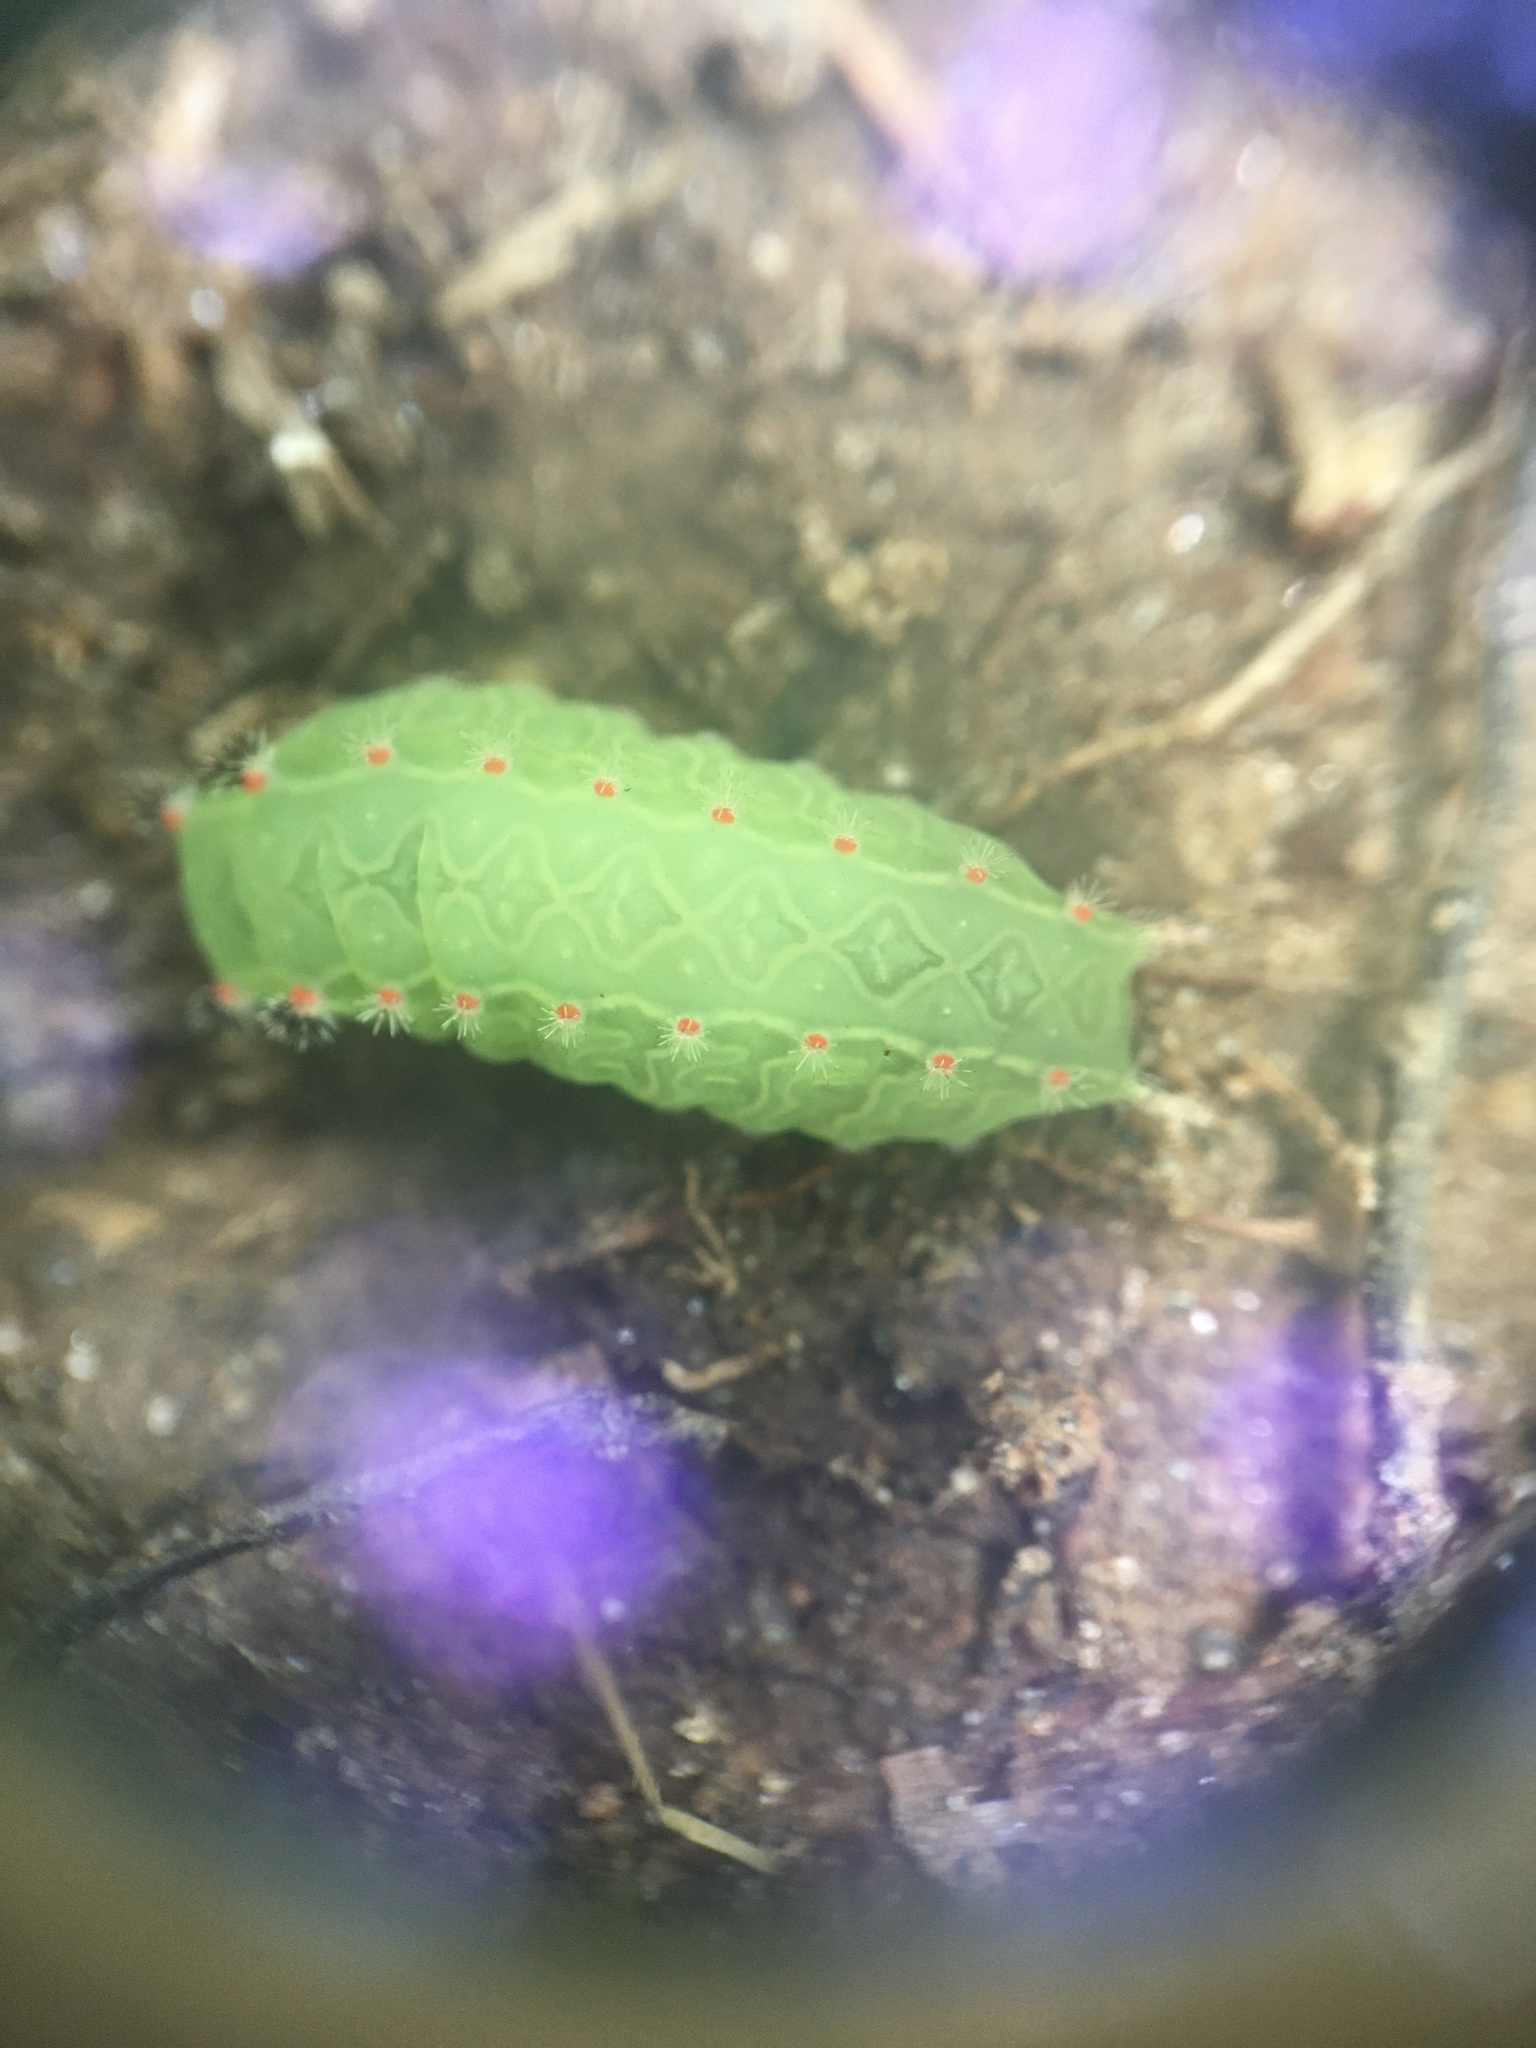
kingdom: Animalia
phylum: Arthropoda
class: Insecta
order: Lepidoptera
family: Limacodidae
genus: Natada
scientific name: Natada nasoni
